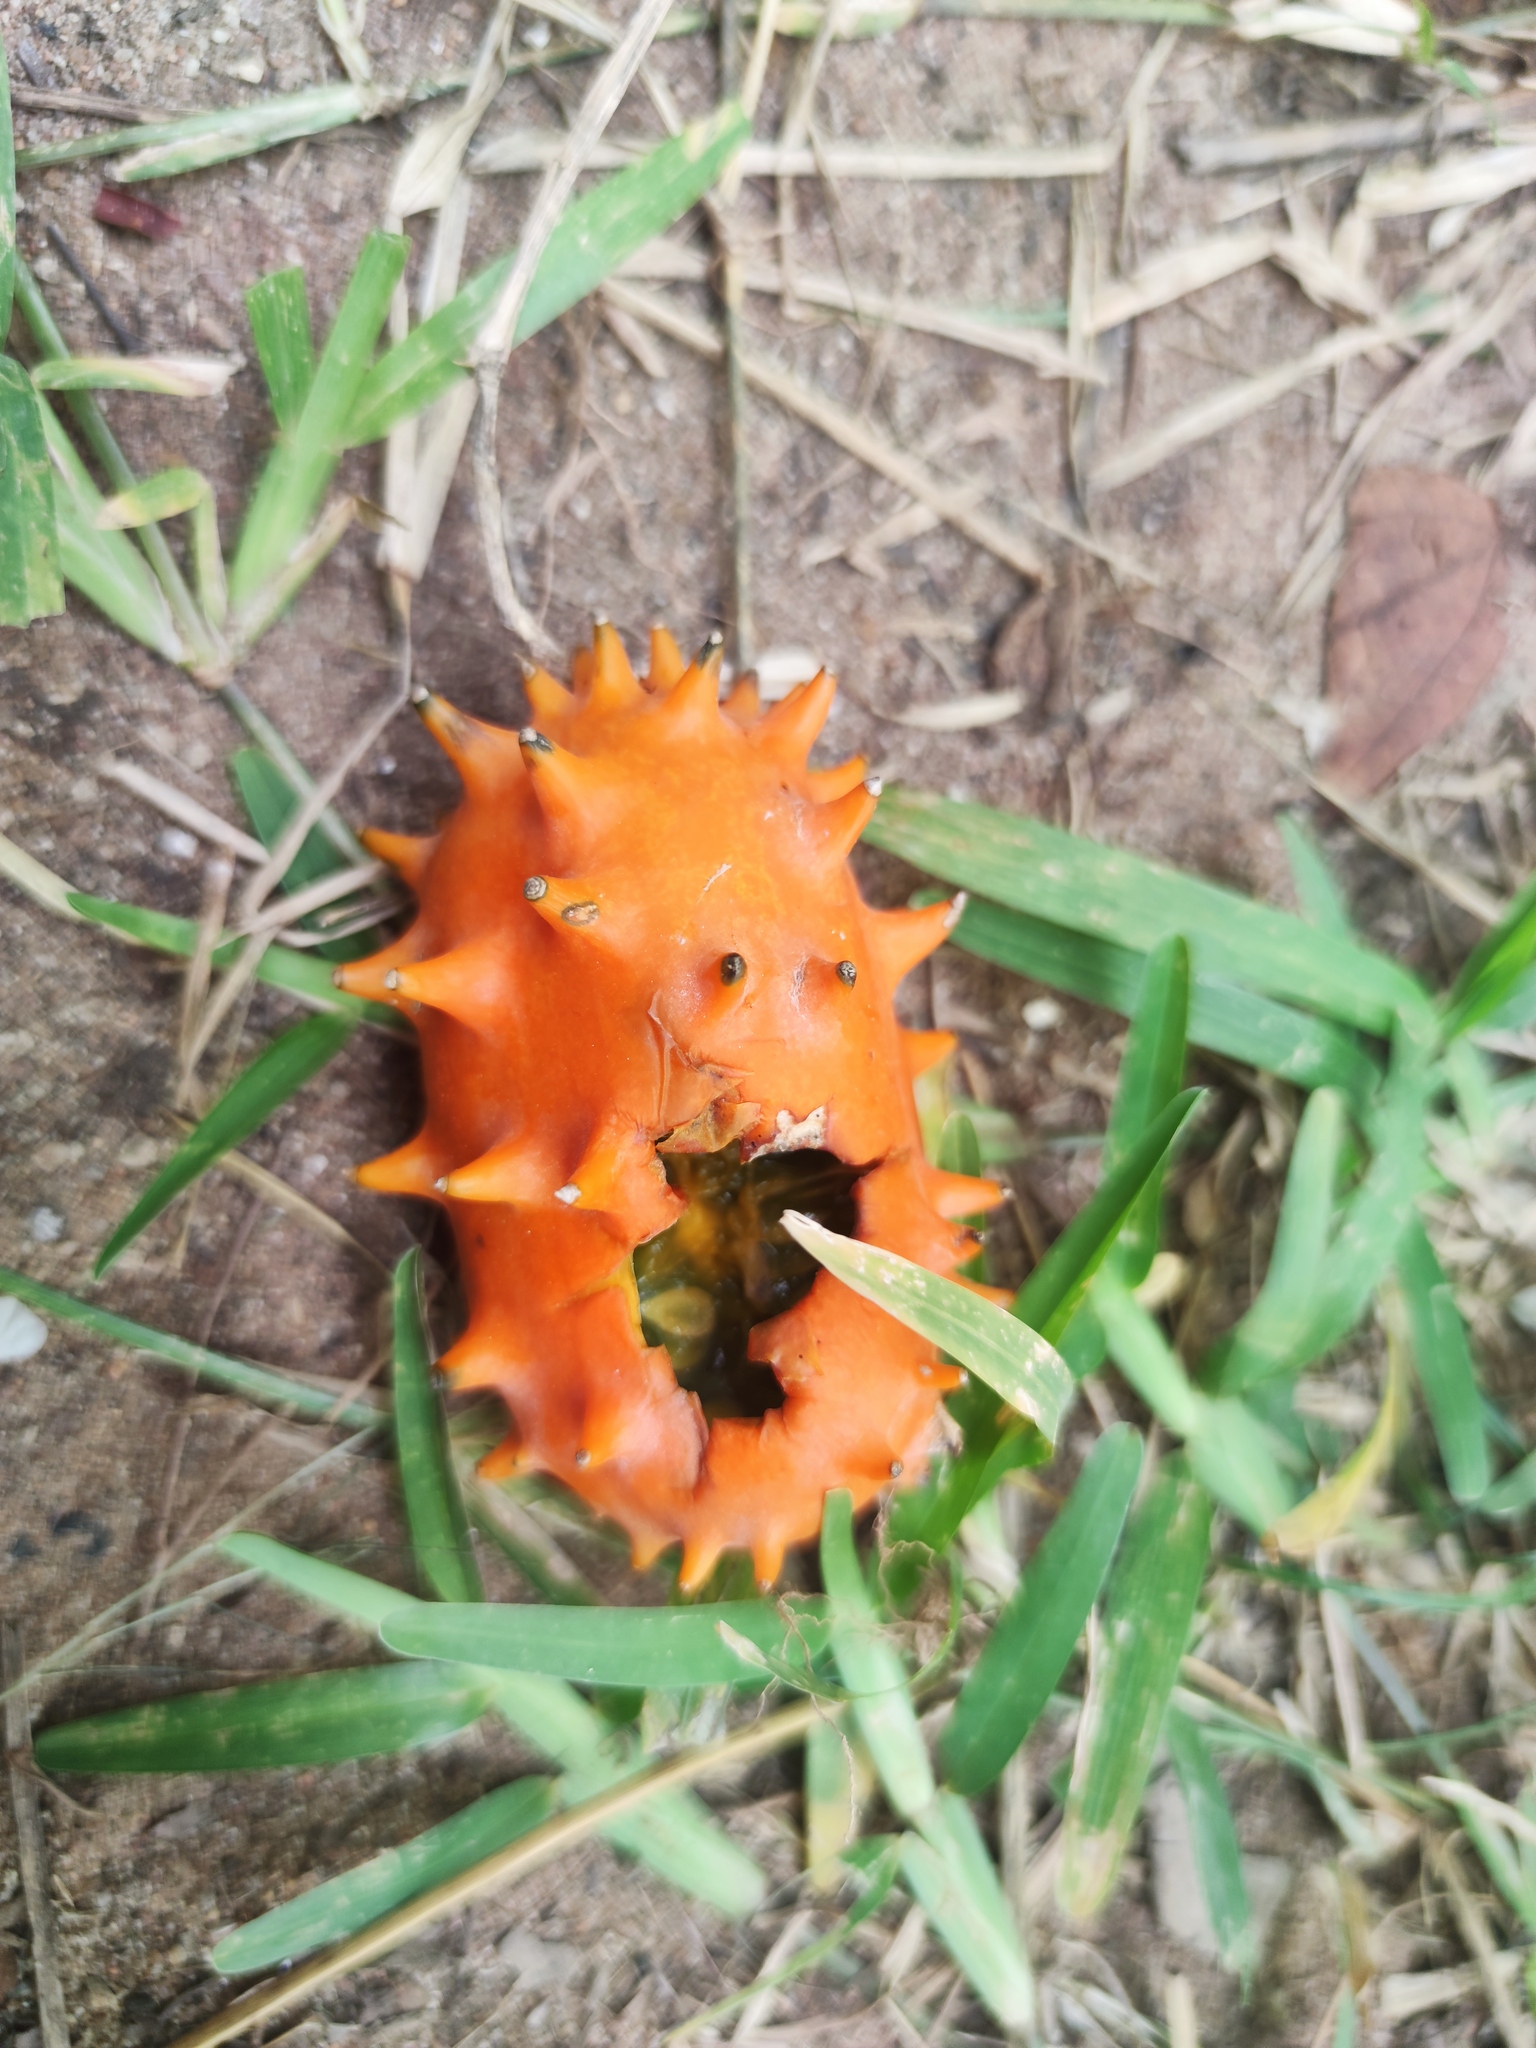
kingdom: Plantae
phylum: Tracheophyta
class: Magnoliopsida
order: Cucurbitales
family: Cucurbitaceae
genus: Cucumis
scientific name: Cucumis metuliferus
